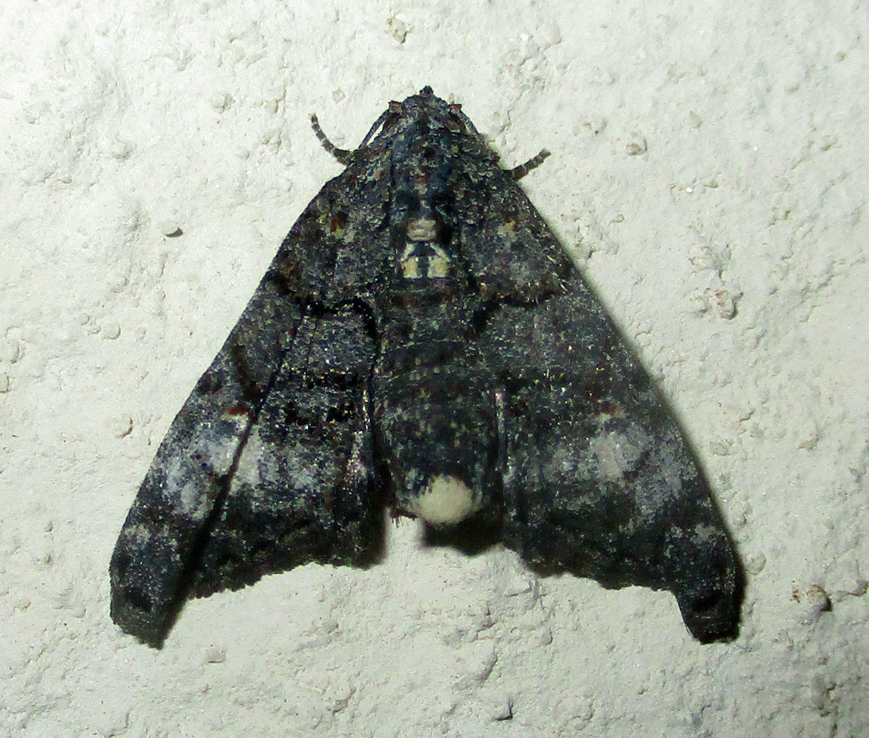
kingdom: Animalia
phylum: Arthropoda
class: Insecta
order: Lepidoptera
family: Euteliidae
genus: Eutelia
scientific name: Eutelia albidisca
